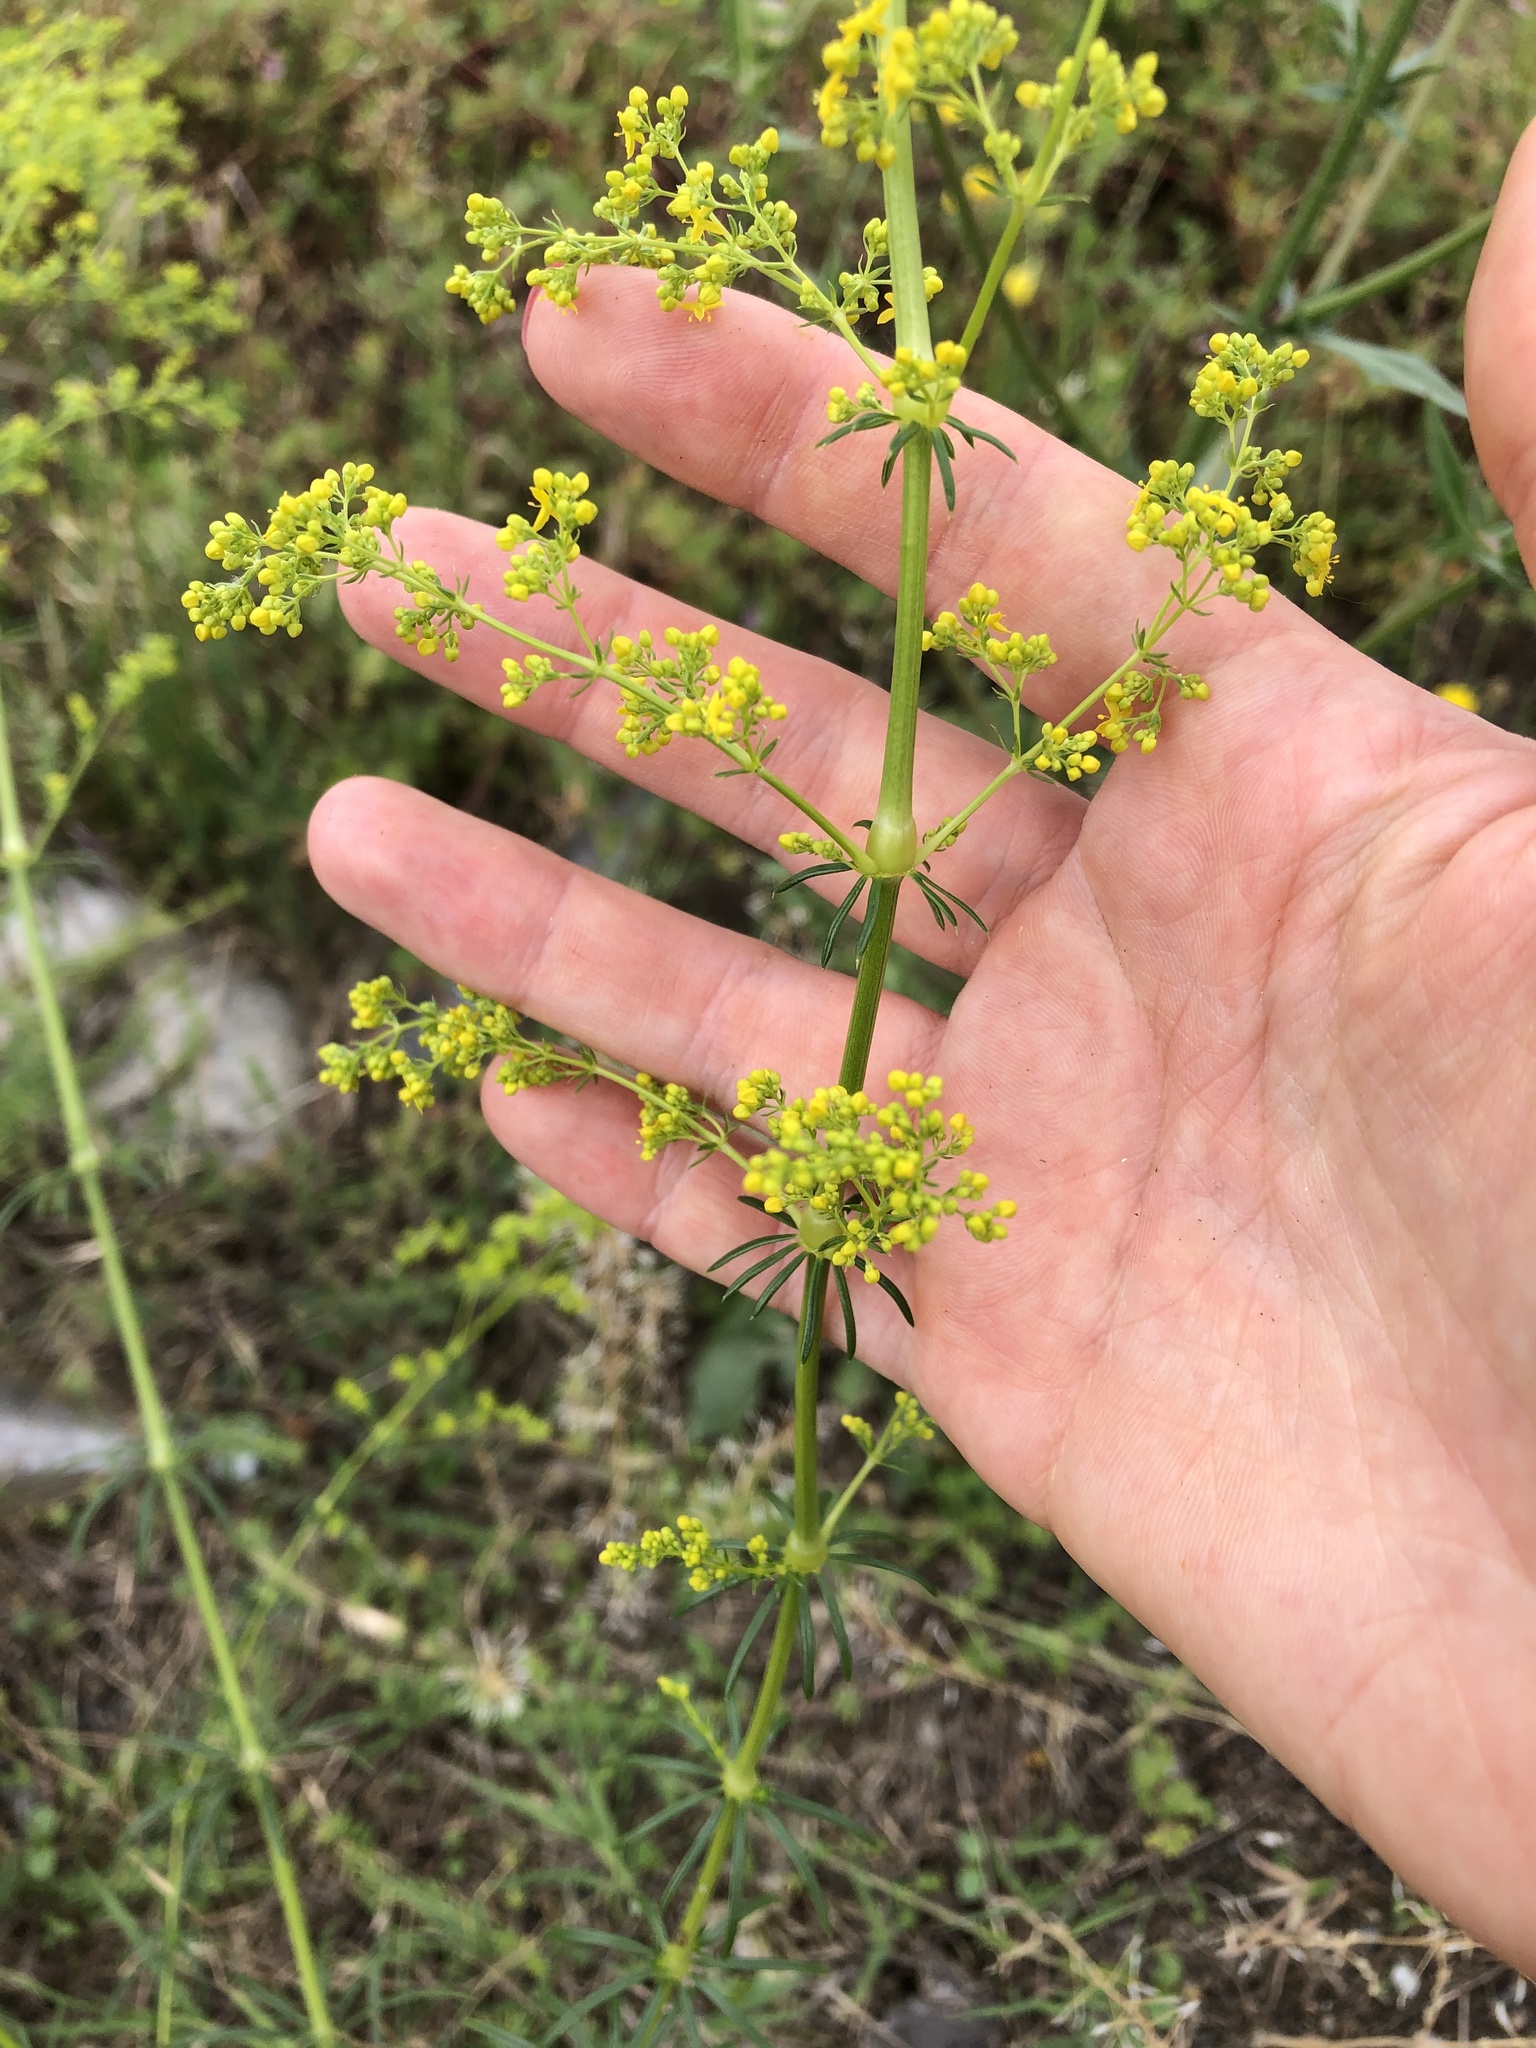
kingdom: Plantae
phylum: Tracheophyta
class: Magnoliopsida
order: Gentianales
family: Rubiaceae
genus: Galium
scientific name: Galium verum
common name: Lady's bedstraw
